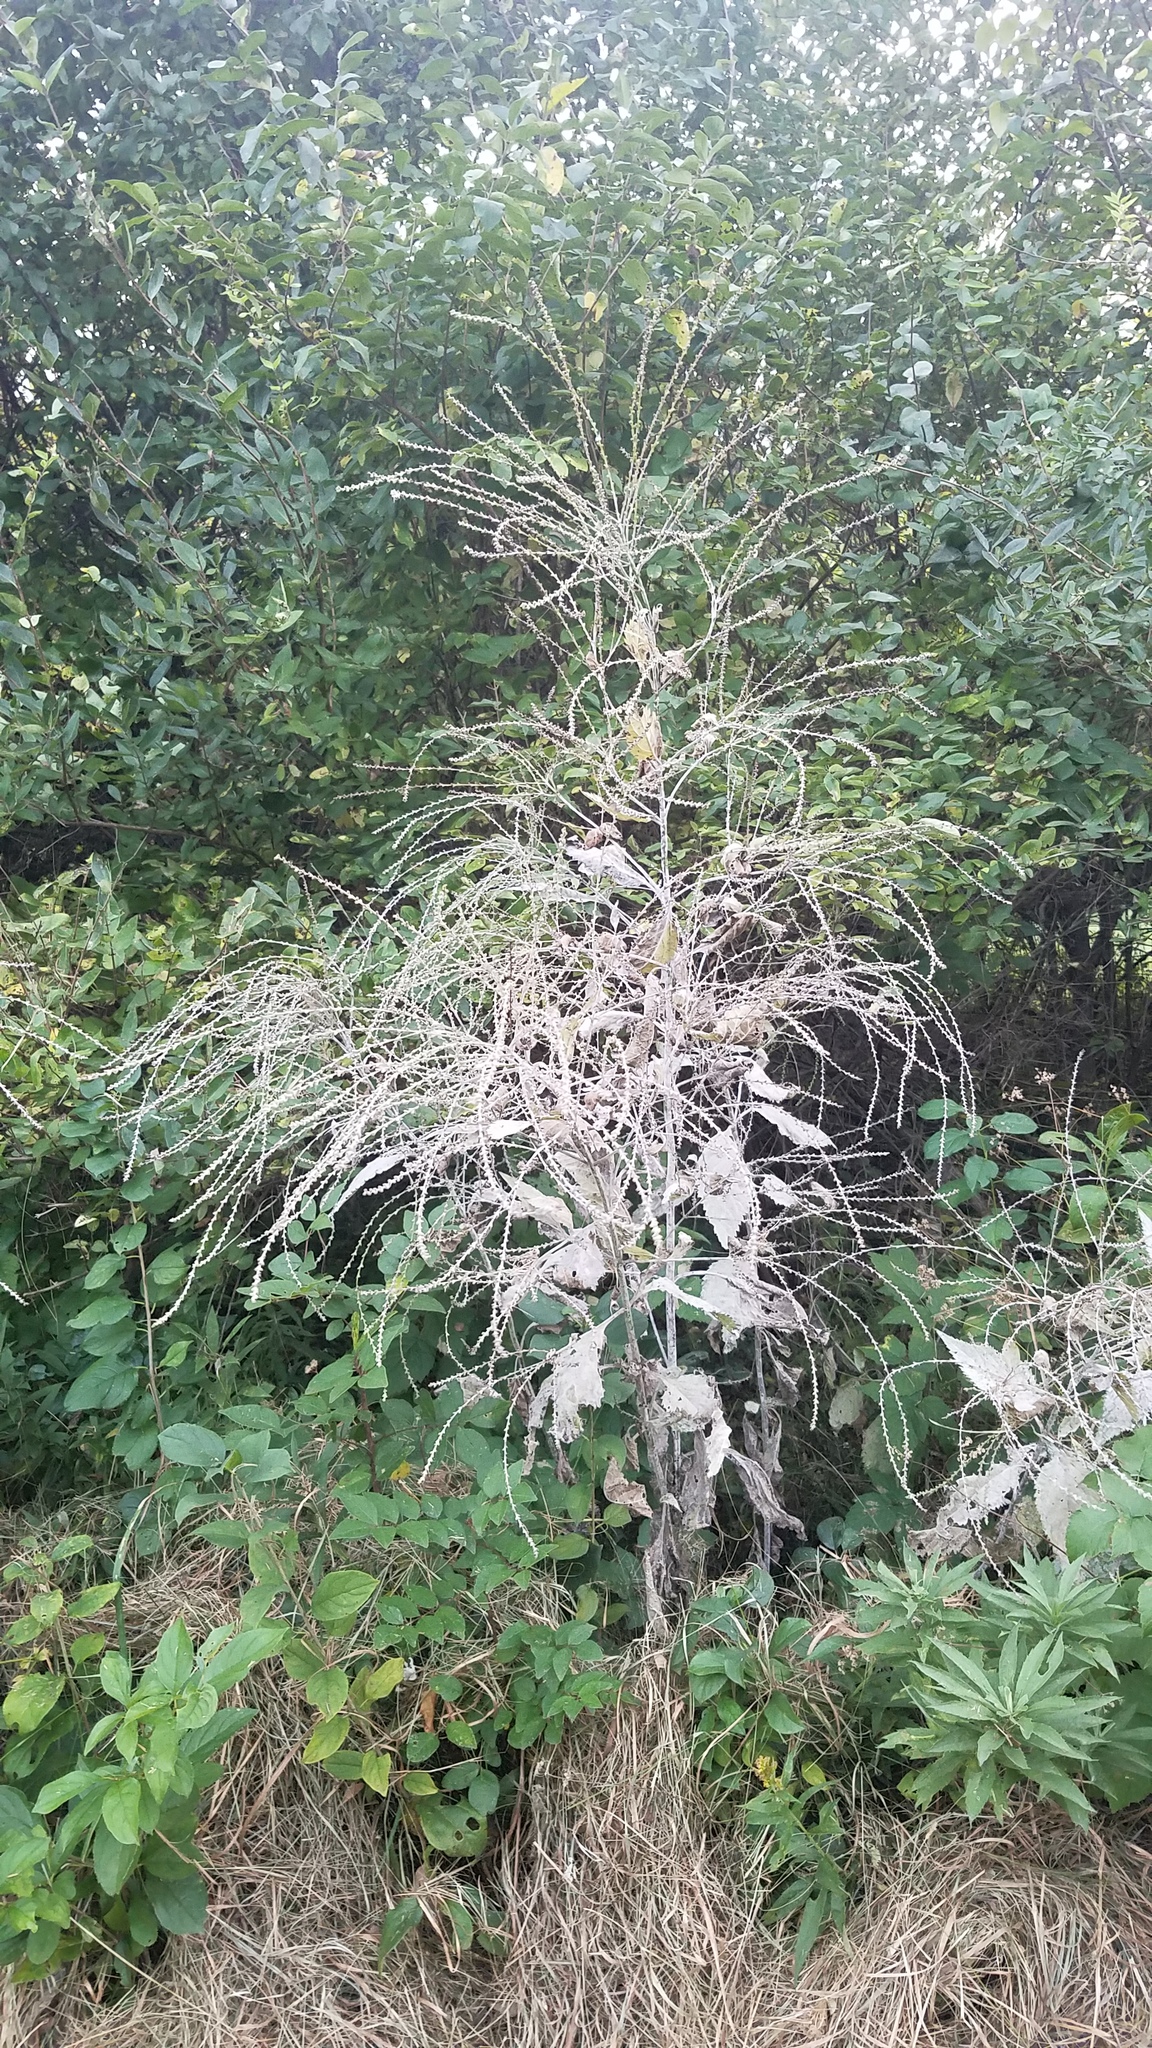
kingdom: Plantae
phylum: Tracheophyta
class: Magnoliopsida
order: Lamiales
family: Verbenaceae
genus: Verbena
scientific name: Verbena urticifolia
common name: Nettle-leaved vervain
